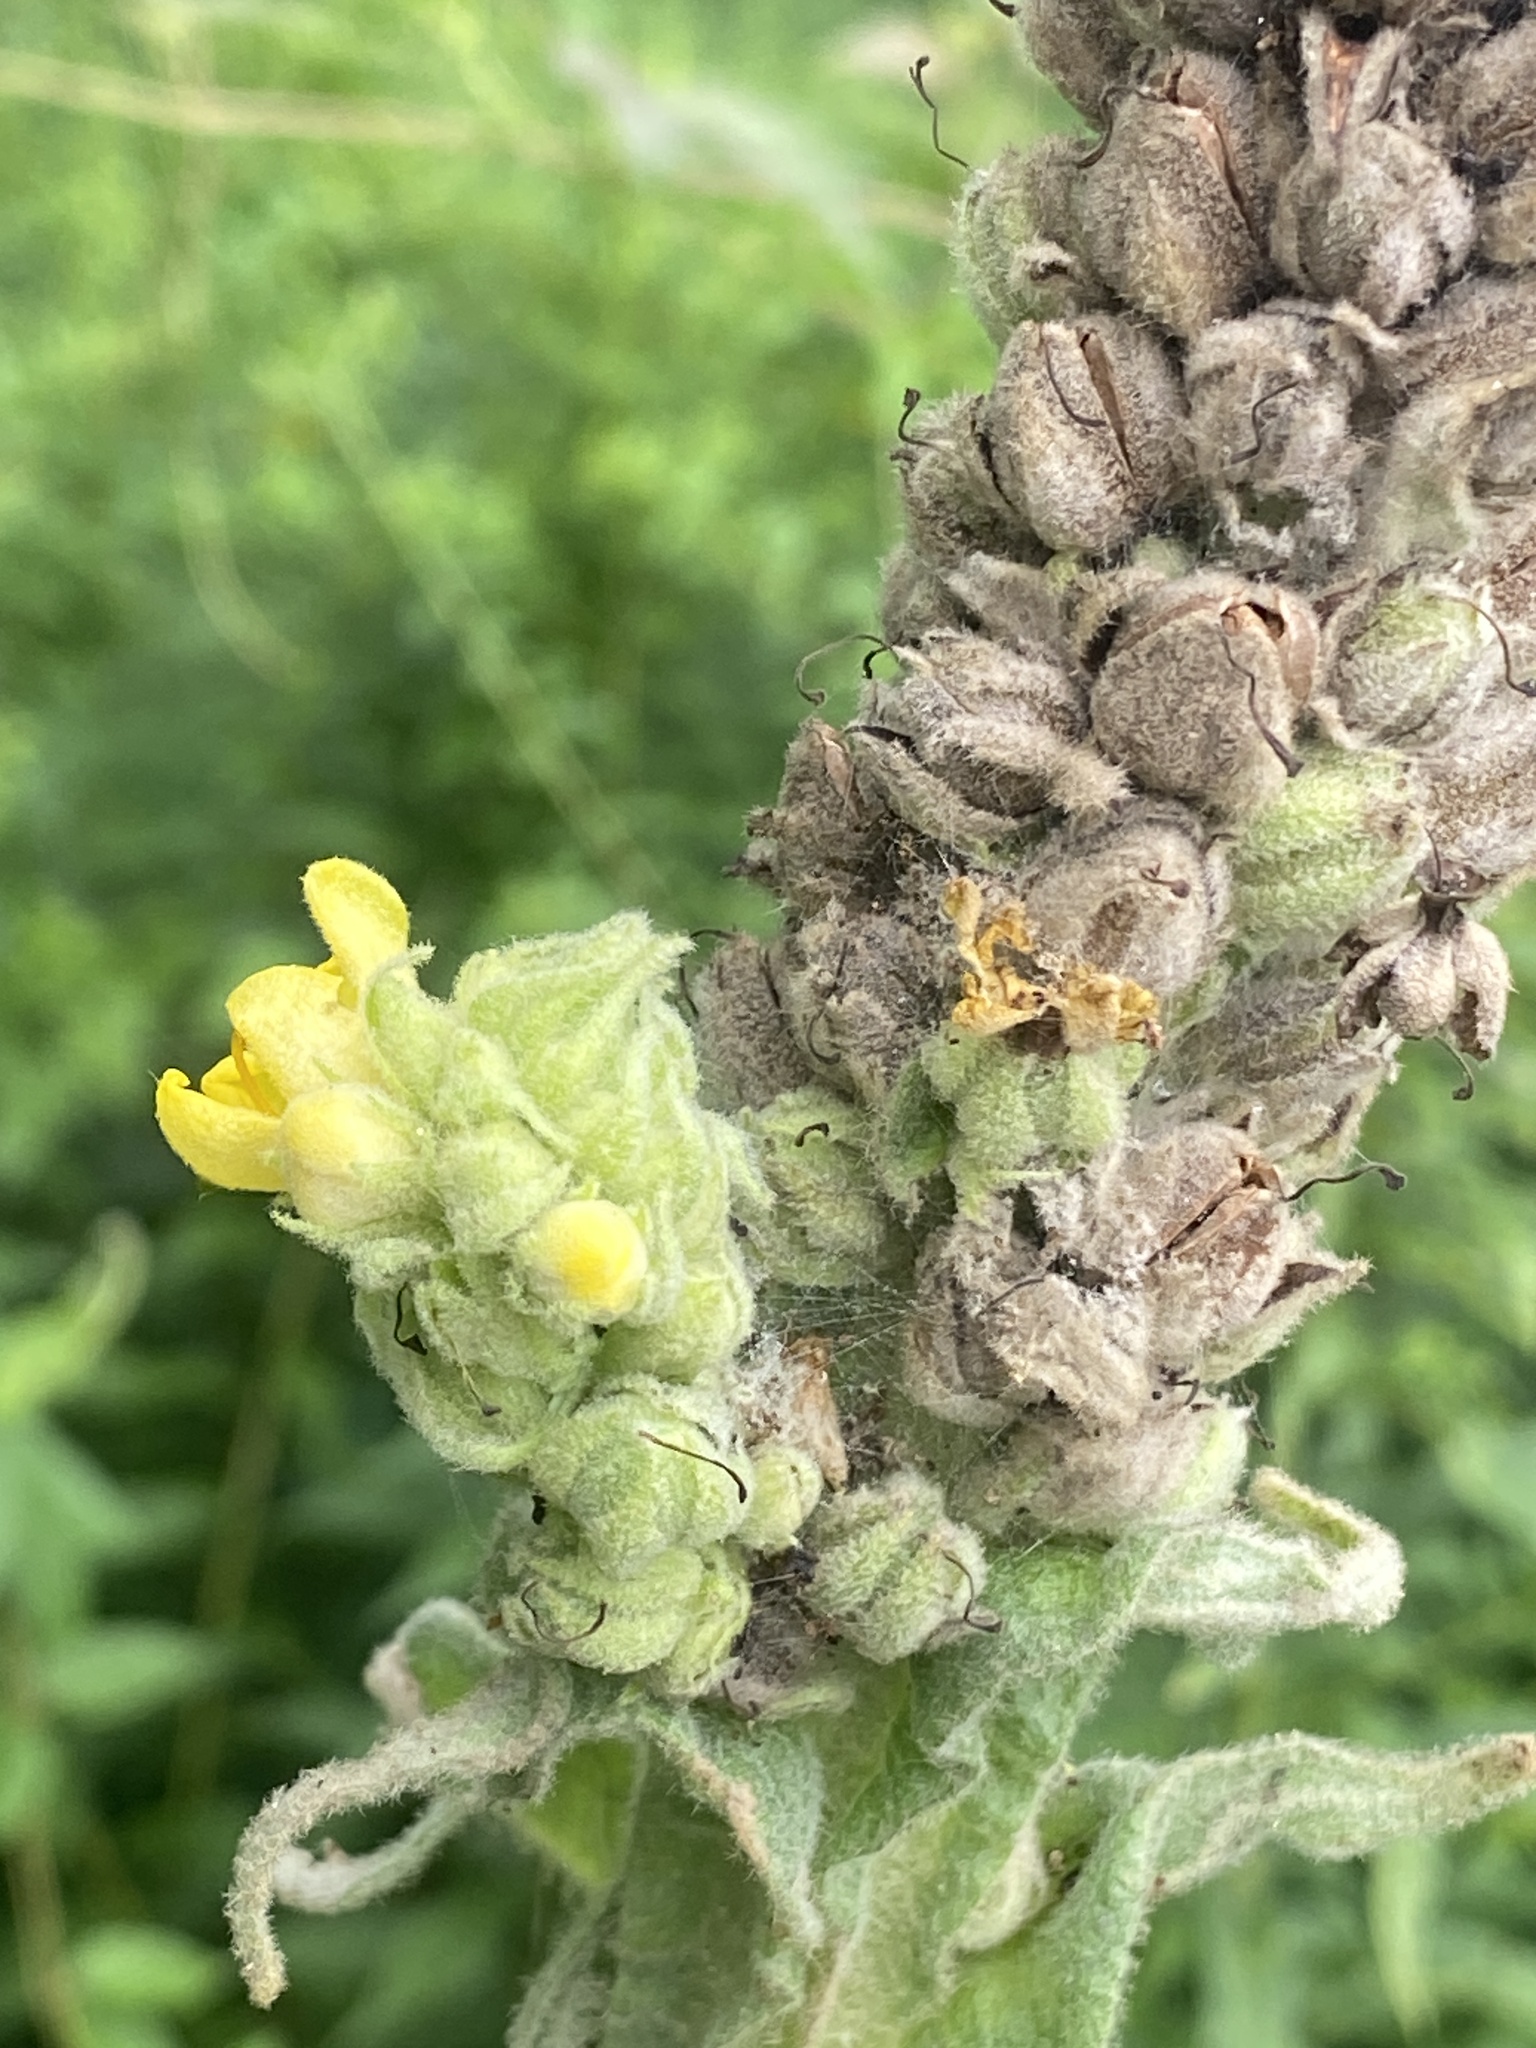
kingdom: Plantae
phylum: Tracheophyta
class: Magnoliopsida
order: Lamiales
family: Scrophulariaceae
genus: Verbascum
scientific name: Verbascum thapsus
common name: Common mullein
